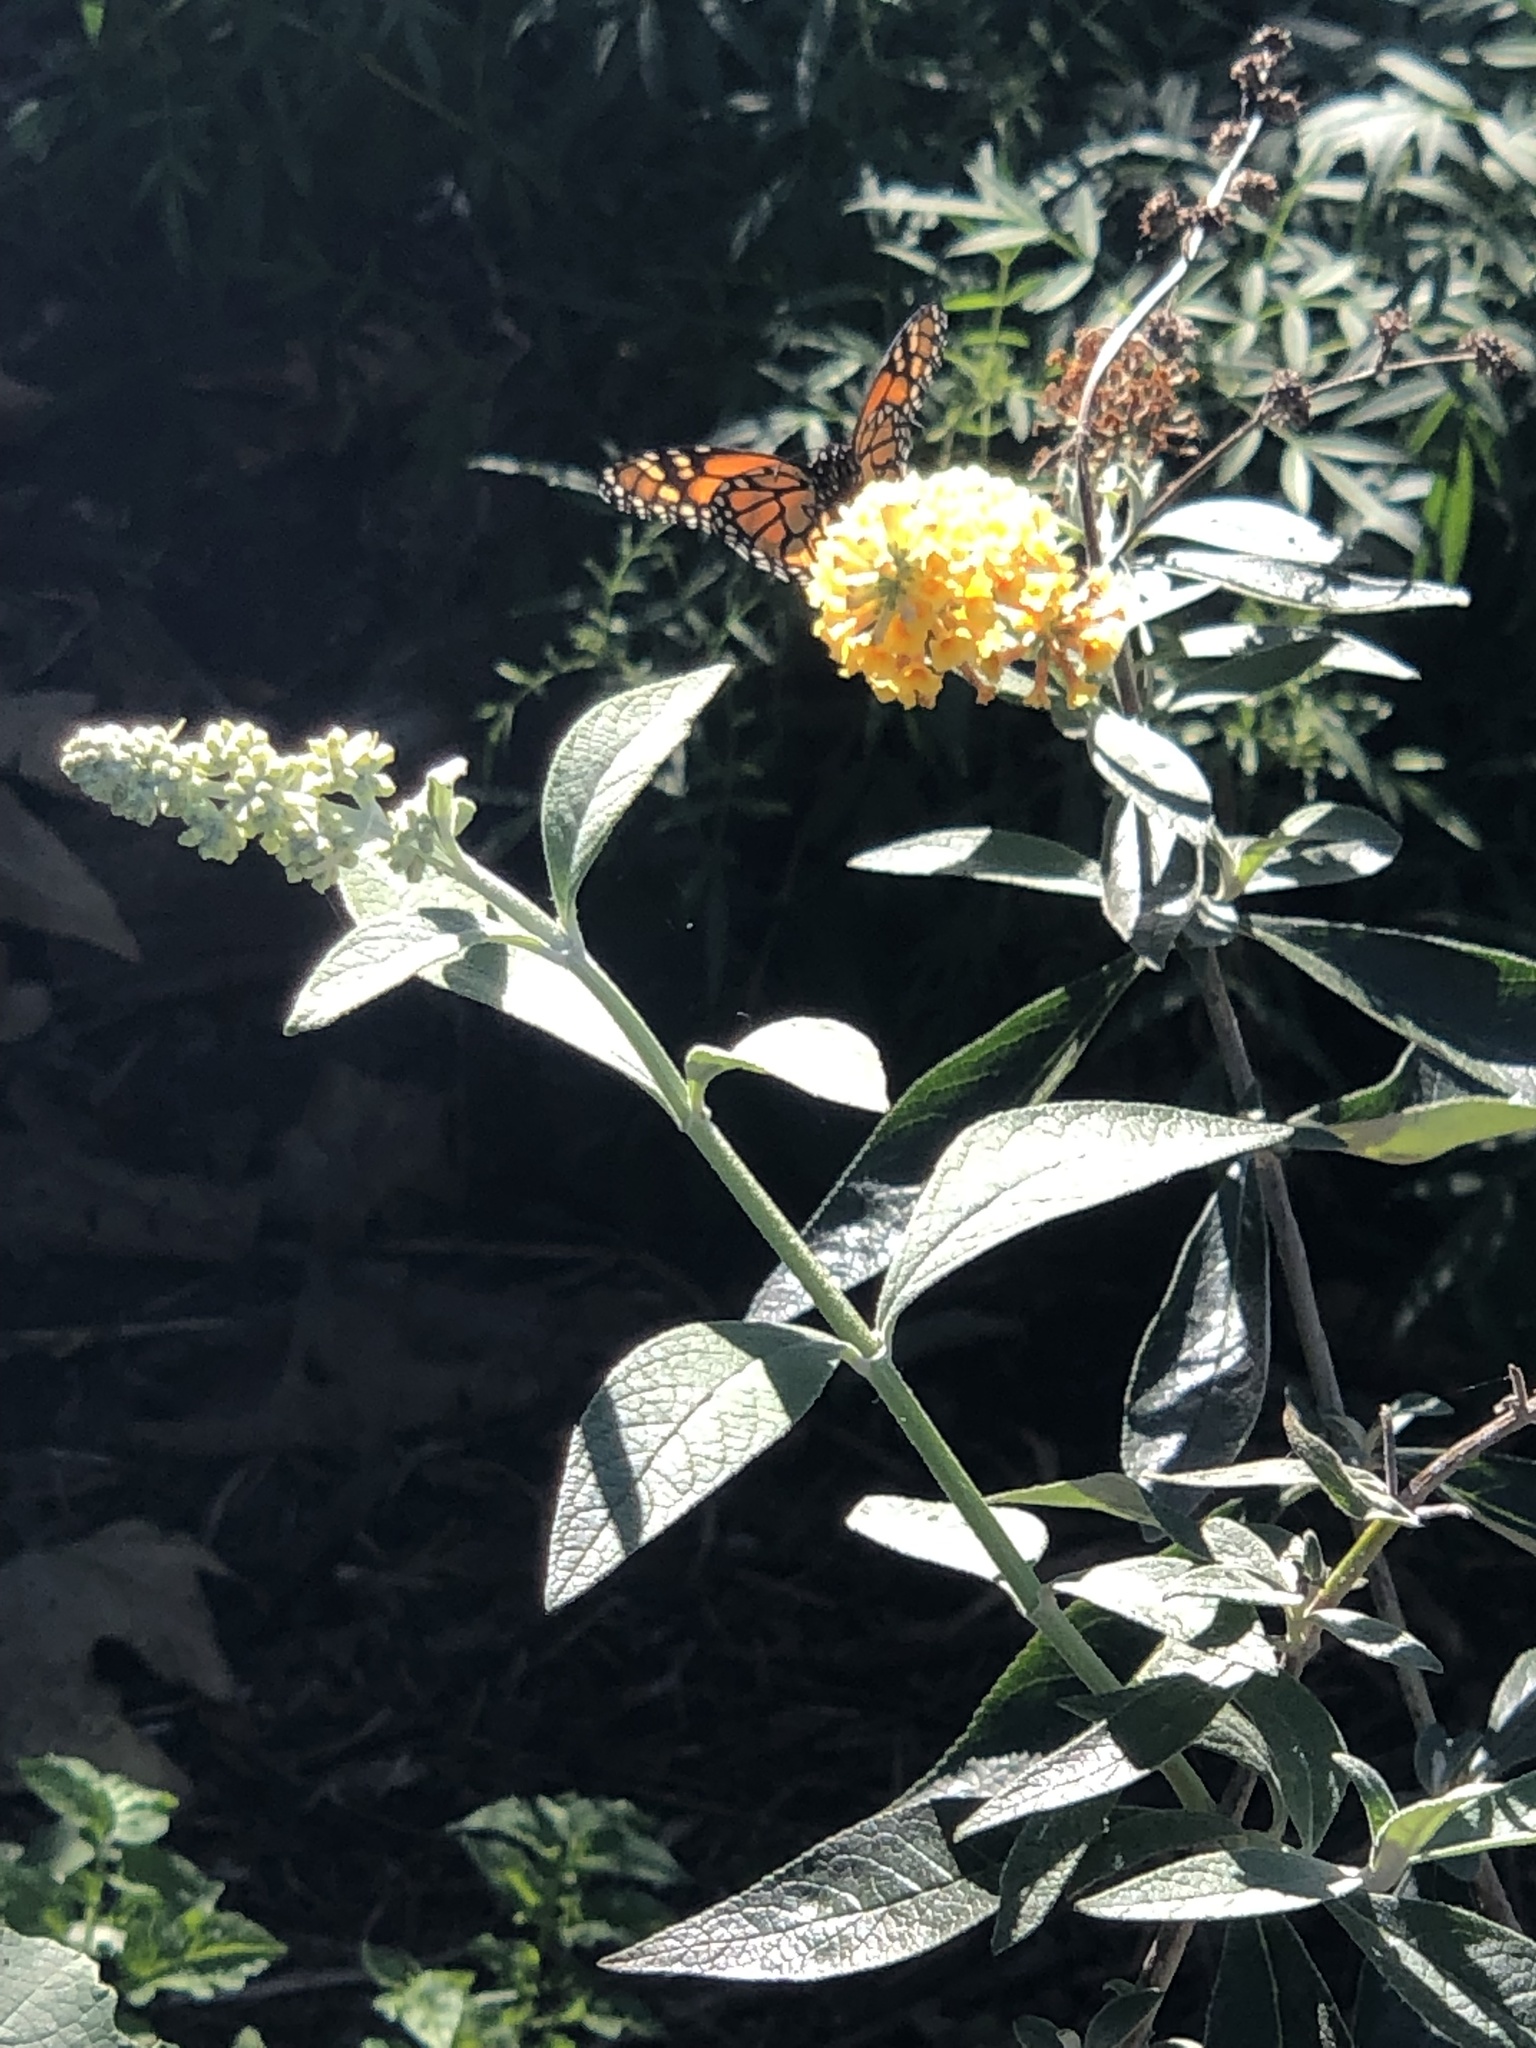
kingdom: Animalia
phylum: Arthropoda
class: Insecta
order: Lepidoptera
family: Nymphalidae
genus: Danaus
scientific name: Danaus plexippus
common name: Monarch
